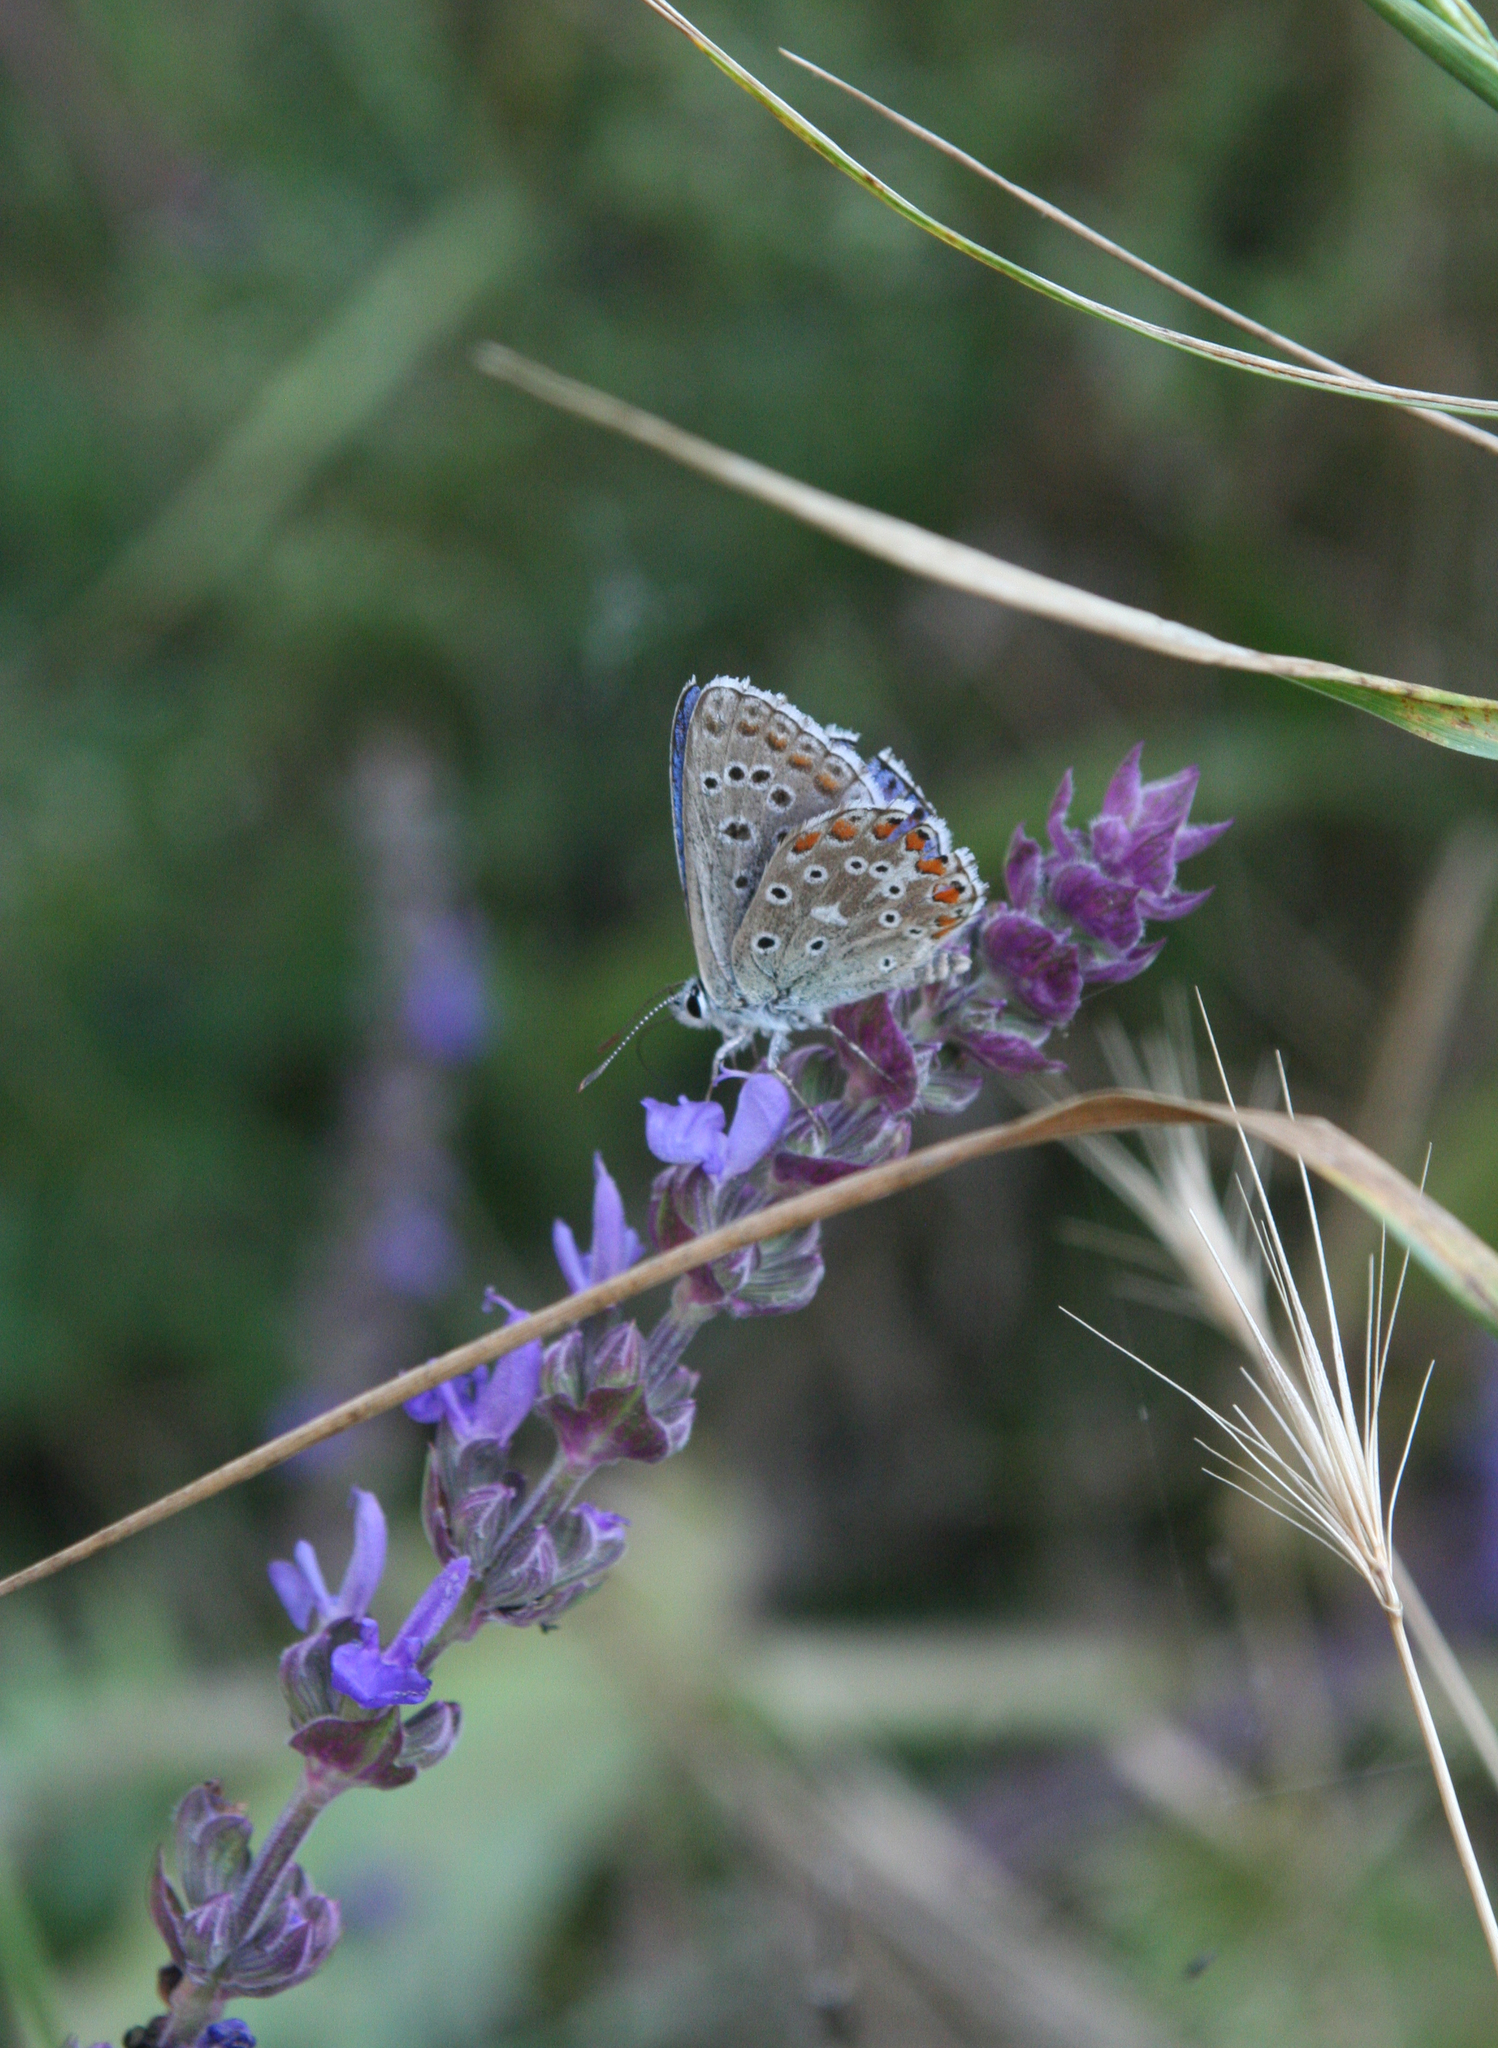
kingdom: Plantae
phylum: Tracheophyta
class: Magnoliopsida
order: Lamiales
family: Lamiaceae
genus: Salvia
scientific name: Salvia nemorosa
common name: Balkan clary
